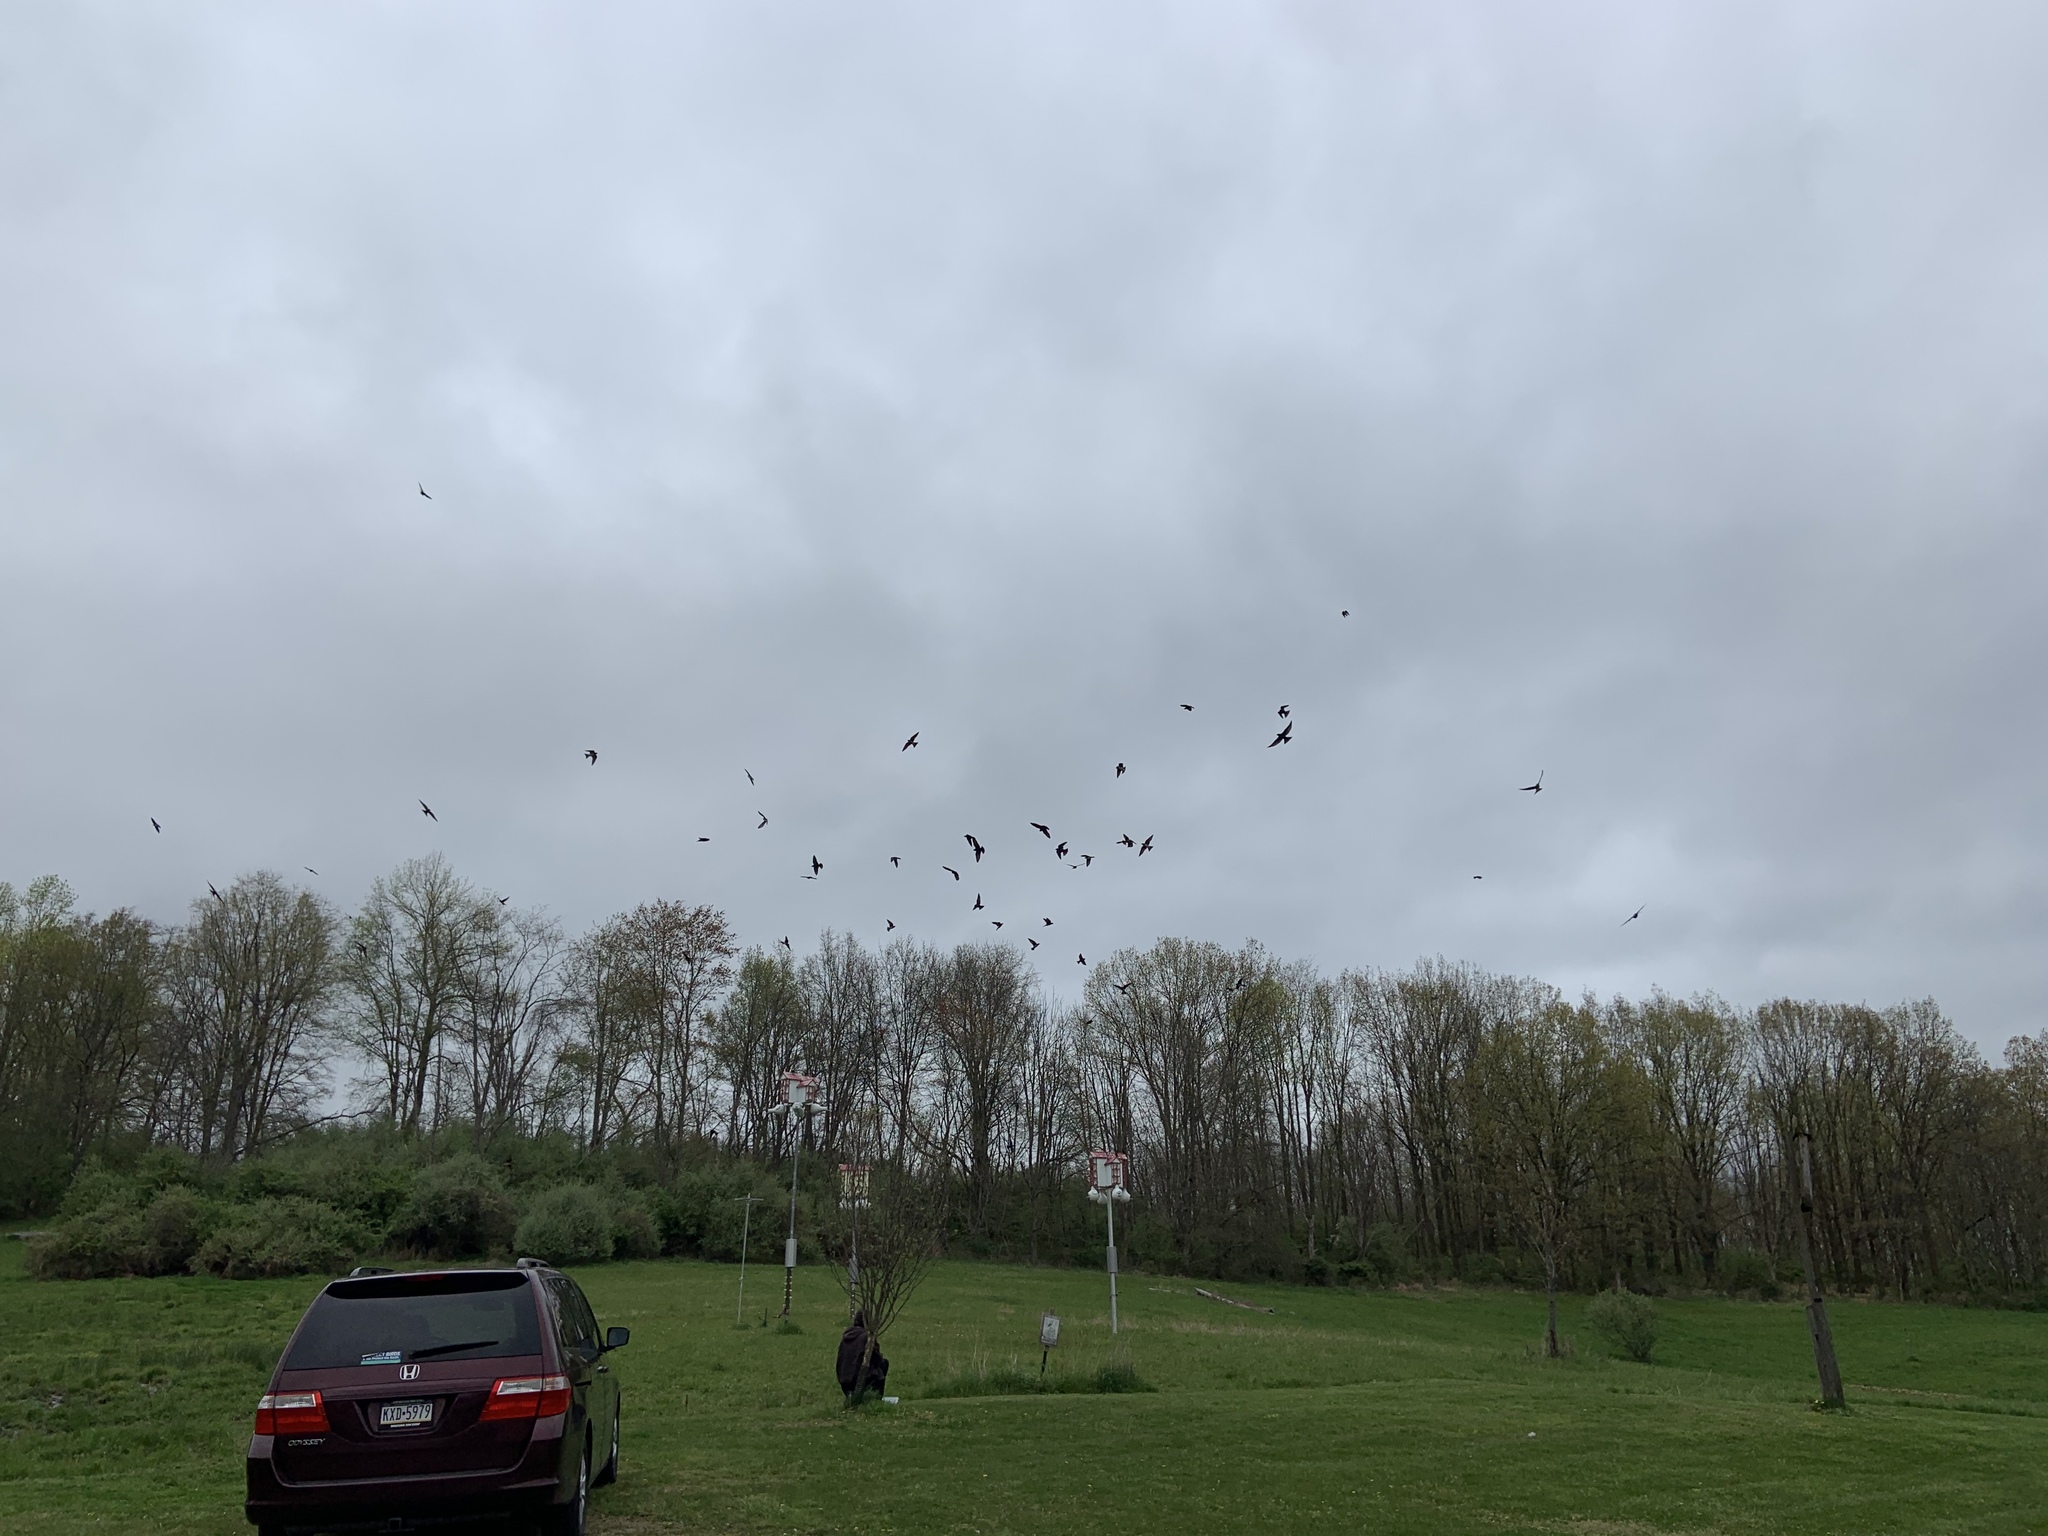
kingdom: Animalia
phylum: Chordata
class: Aves
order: Passeriformes
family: Hirundinidae
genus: Progne
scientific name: Progne subis
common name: Purple martin
